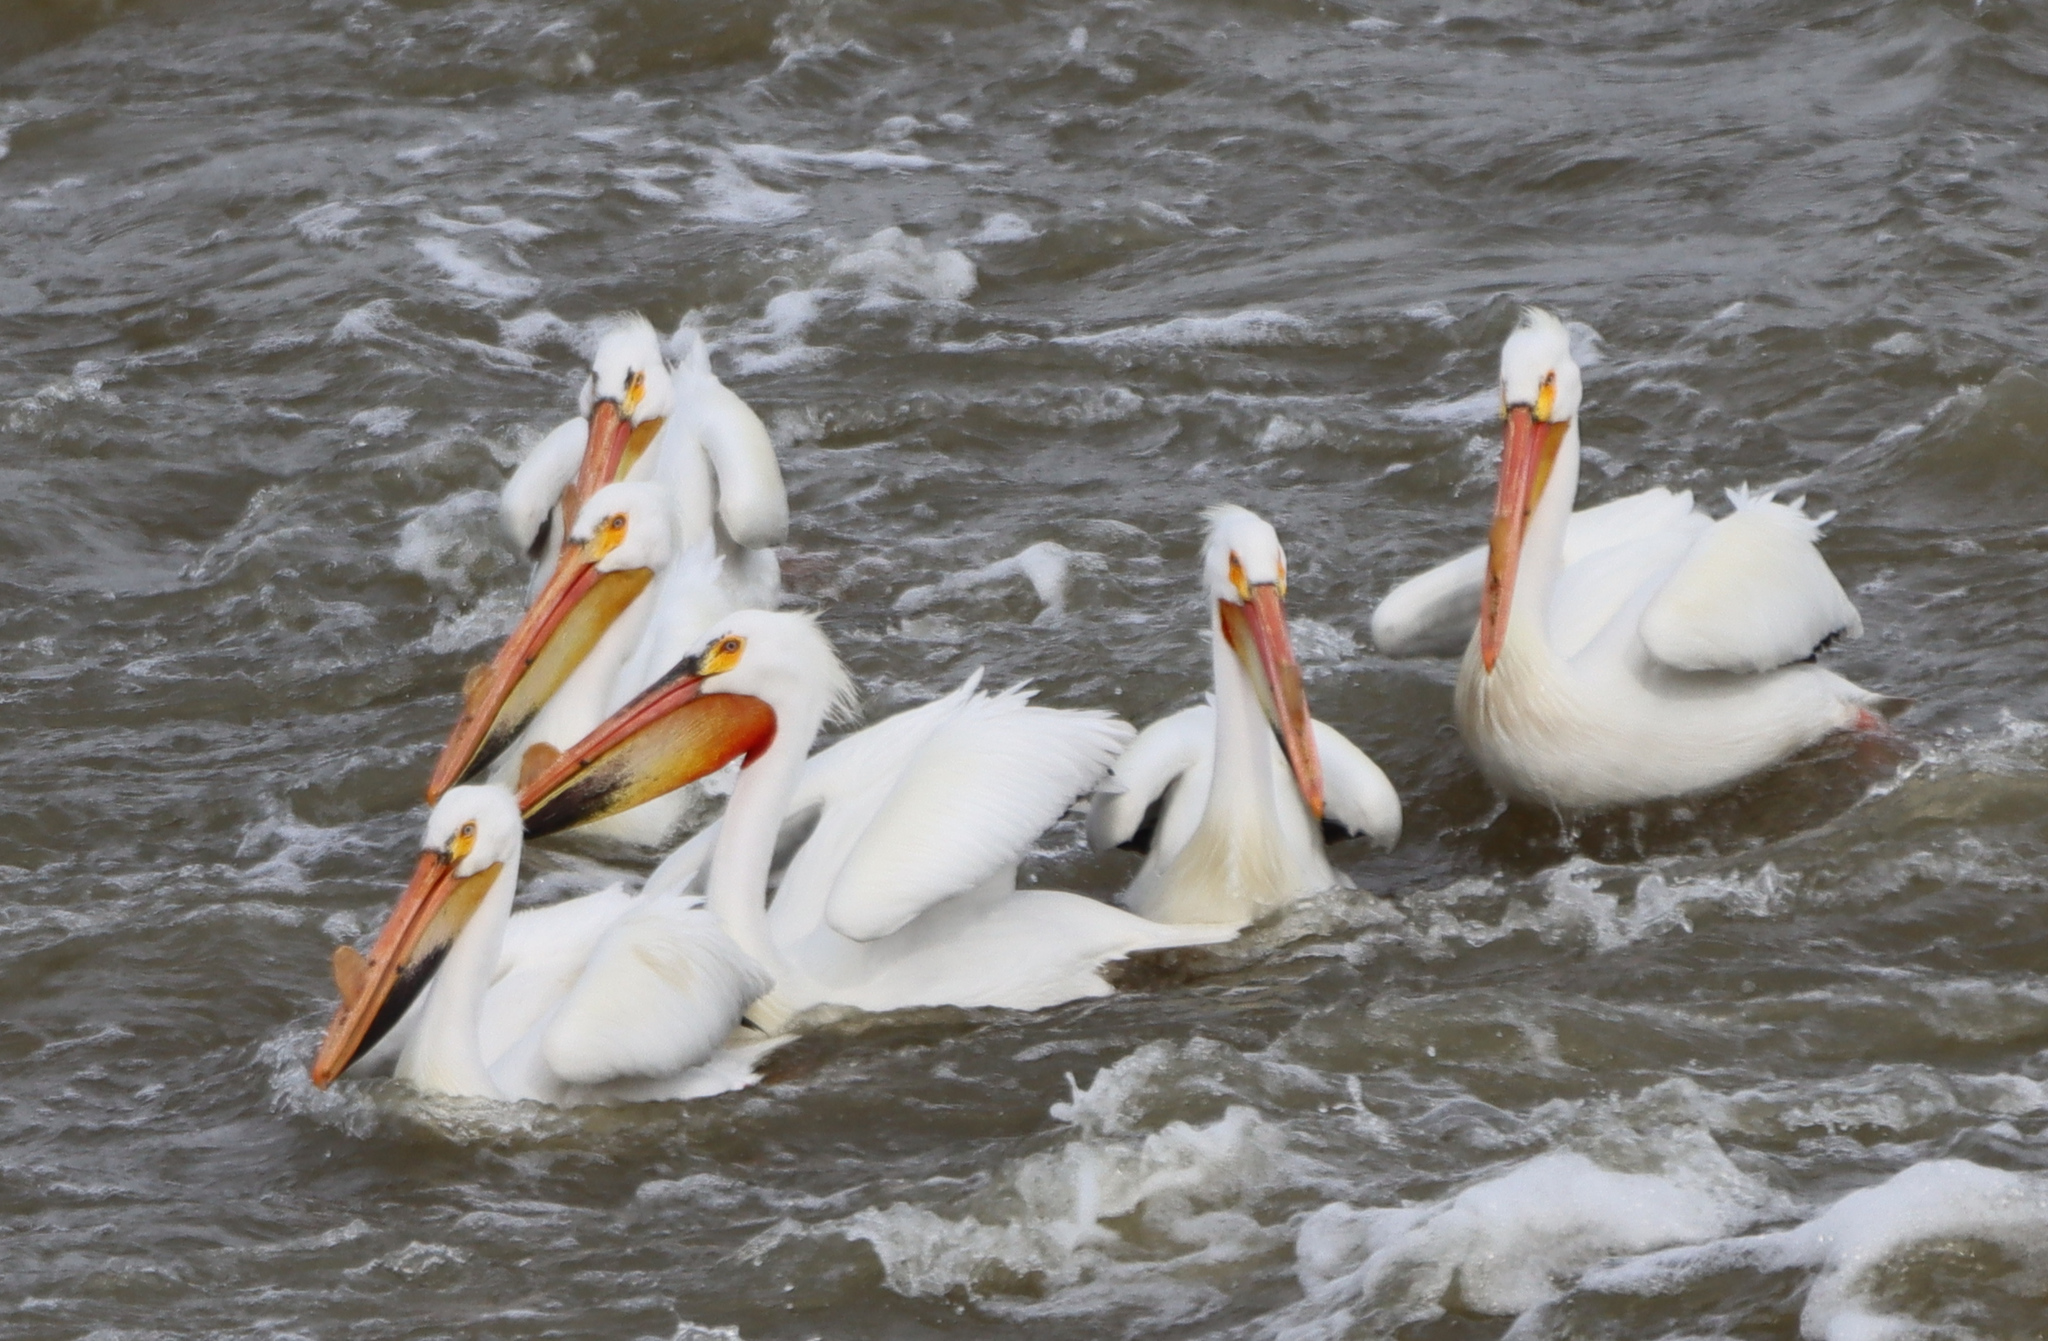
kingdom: Animalia
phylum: Chordata
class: Aves
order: Pelecaniformes
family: Pelecanidae
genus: Pelecanus
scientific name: Pelecanus erythrorhynchos
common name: American white pelican
